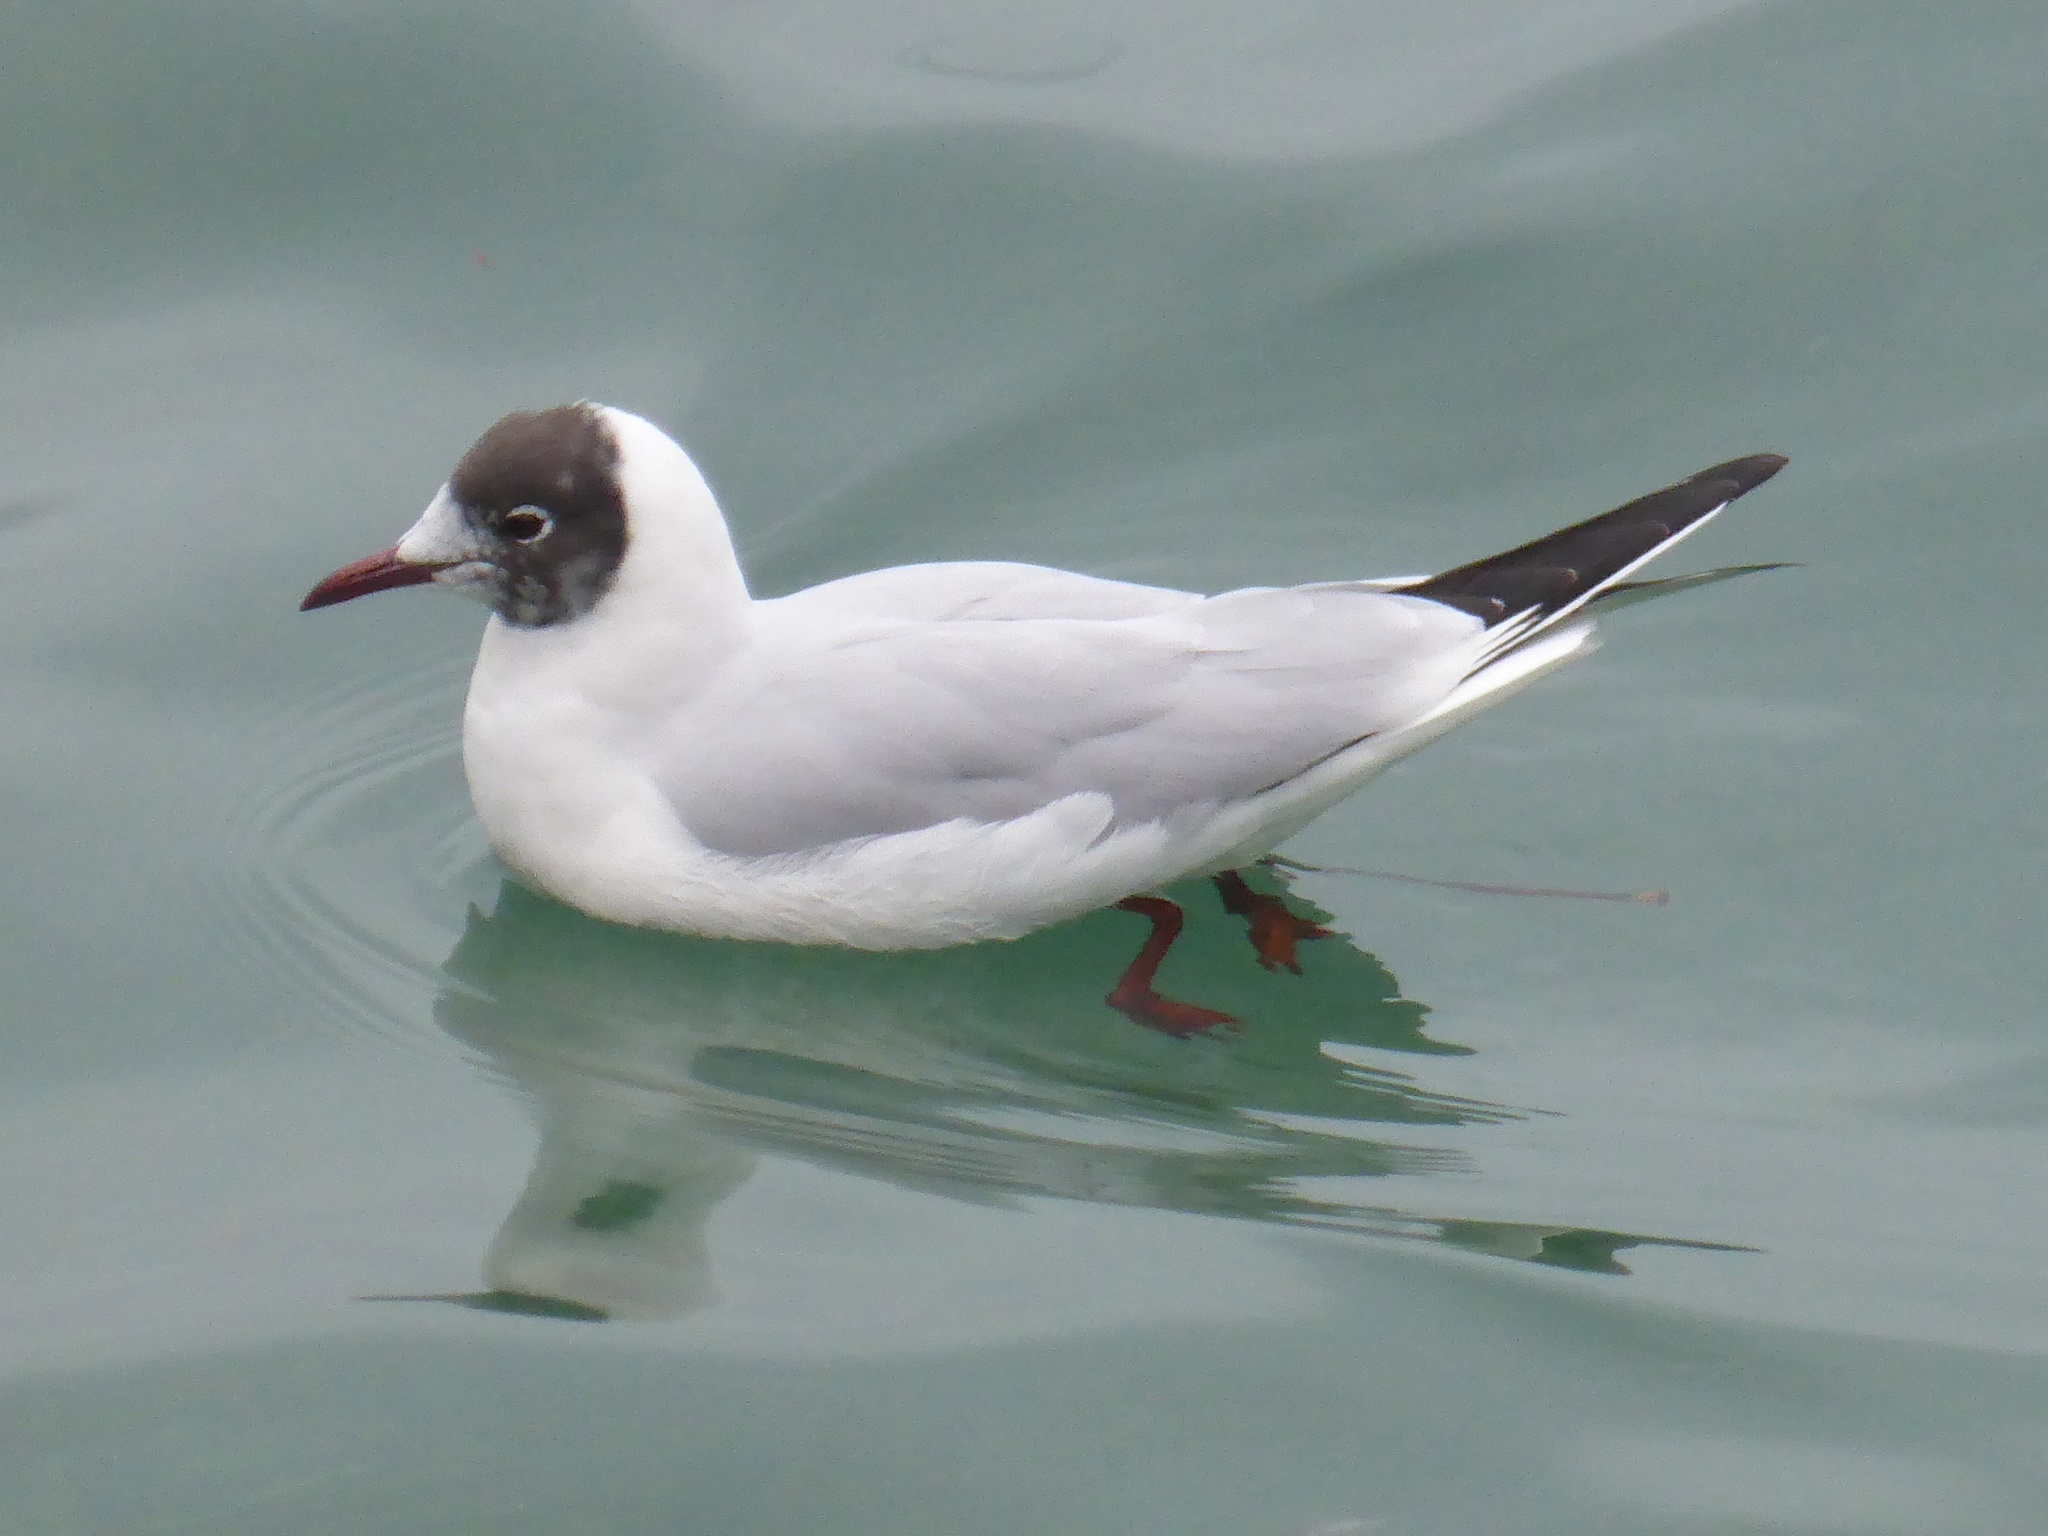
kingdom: Animalia
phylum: Chordata
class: Aves
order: Charadriiformes
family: Laridae
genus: Chroicocephalus
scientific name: Chroicocephalus ridibundus
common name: Black-headed gull
